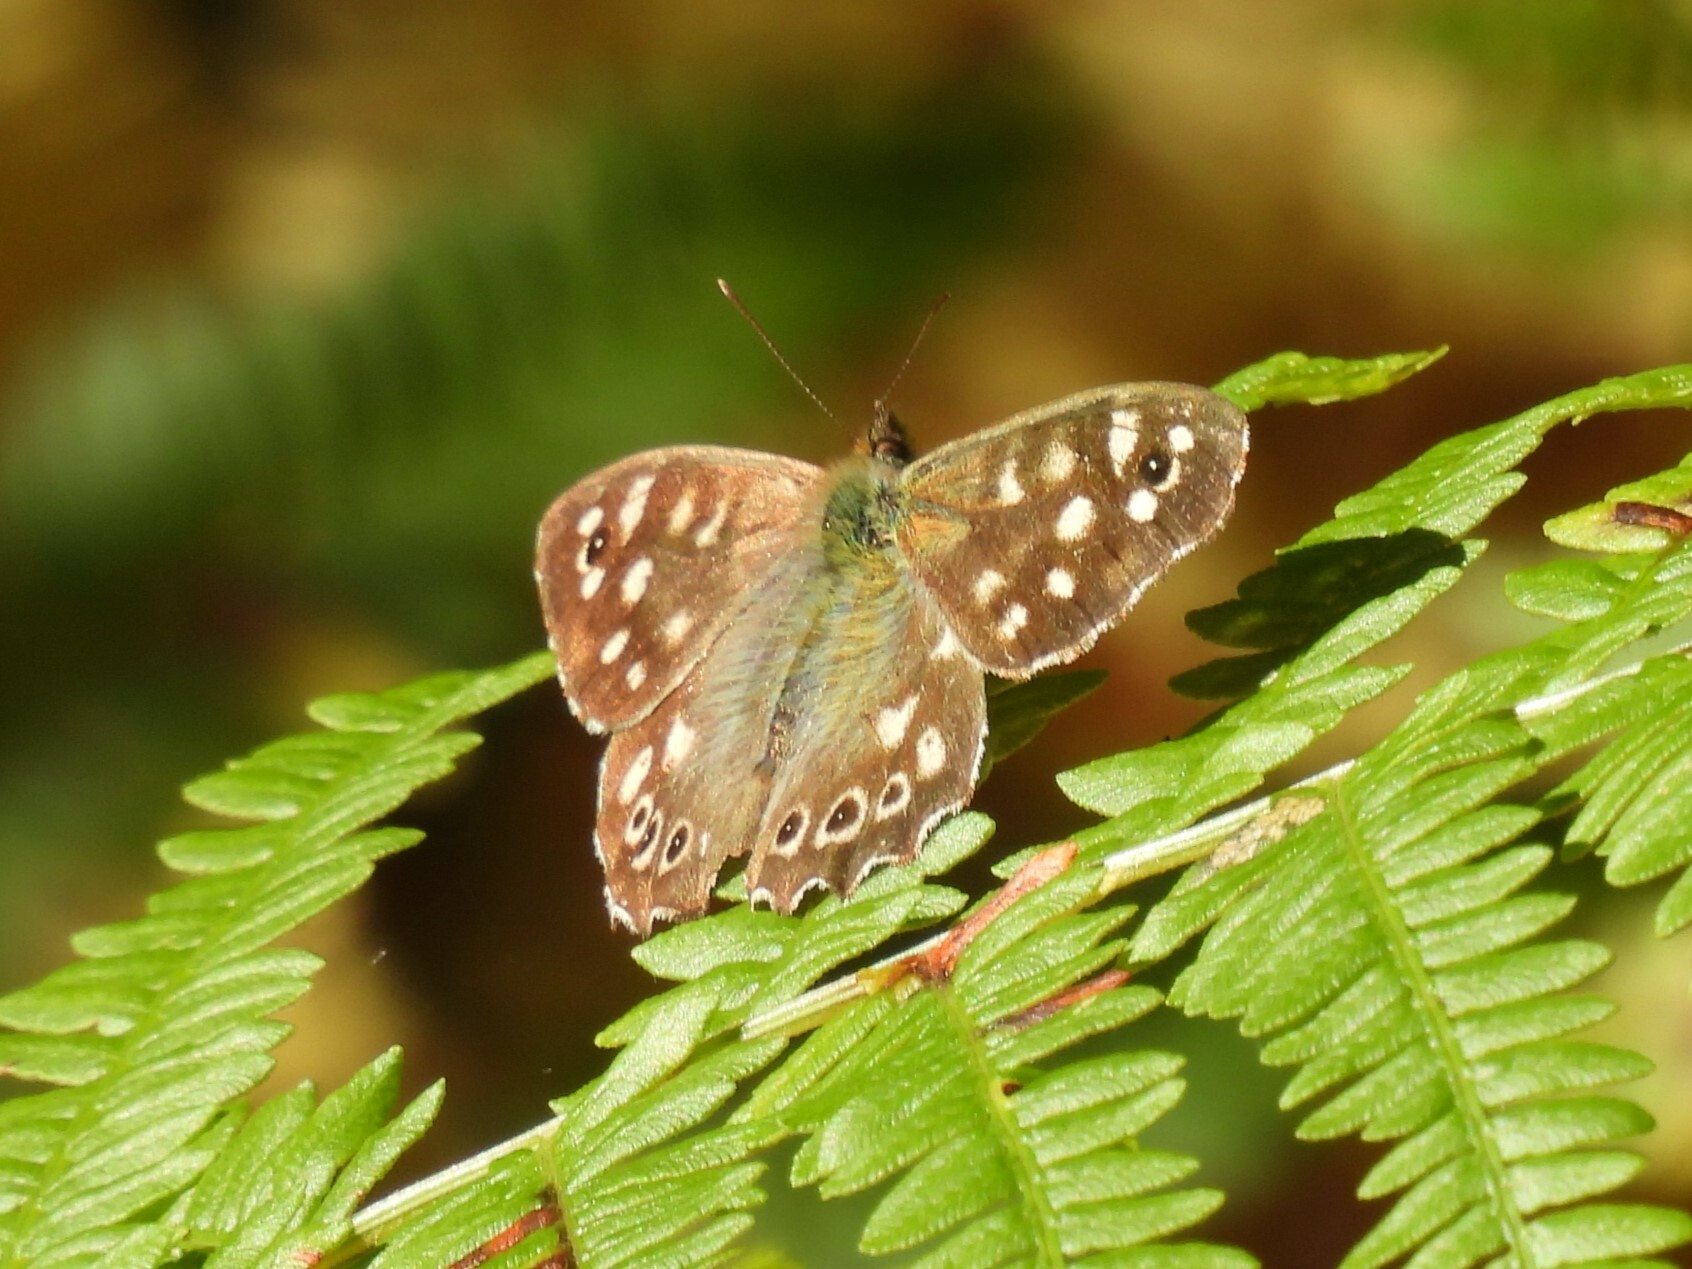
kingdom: Animalia
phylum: Arthropoda
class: Insecta
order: Lepidoptera
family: Nymphalidae
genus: Pararge
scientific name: Pararge aegeria
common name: Speckled wood
